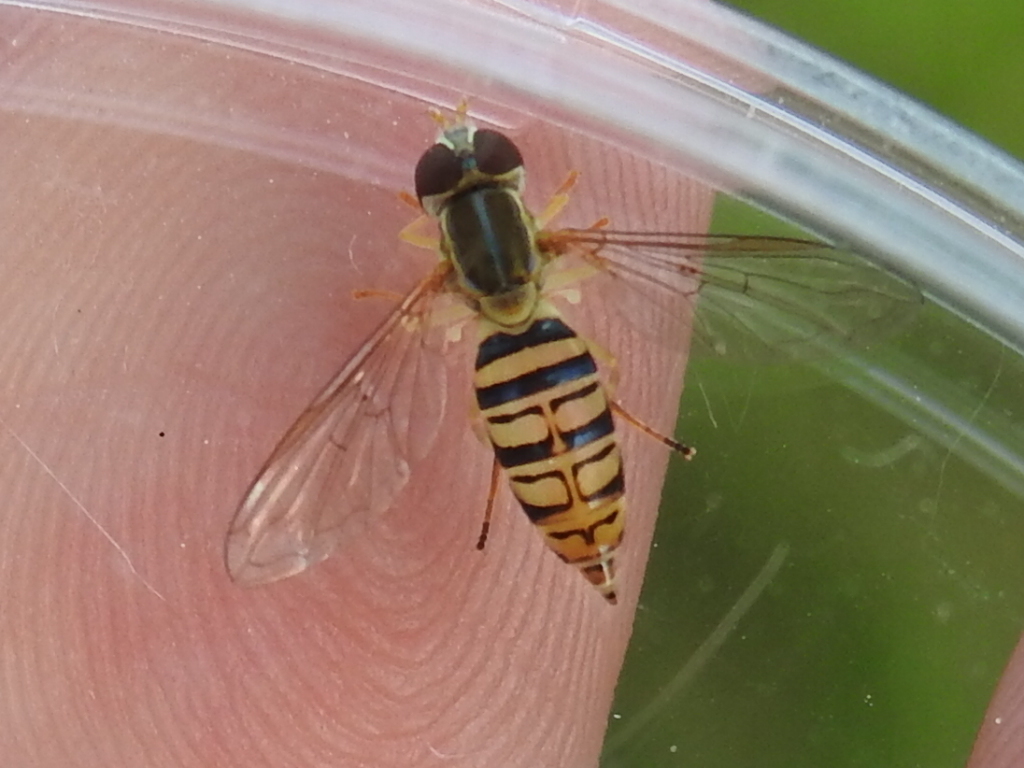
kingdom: Animalia
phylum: Arthropoda
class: Insecta
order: Diptera
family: Syrphidae
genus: Toxomerus
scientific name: Toxomerus politus
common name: Maize calligrapher
